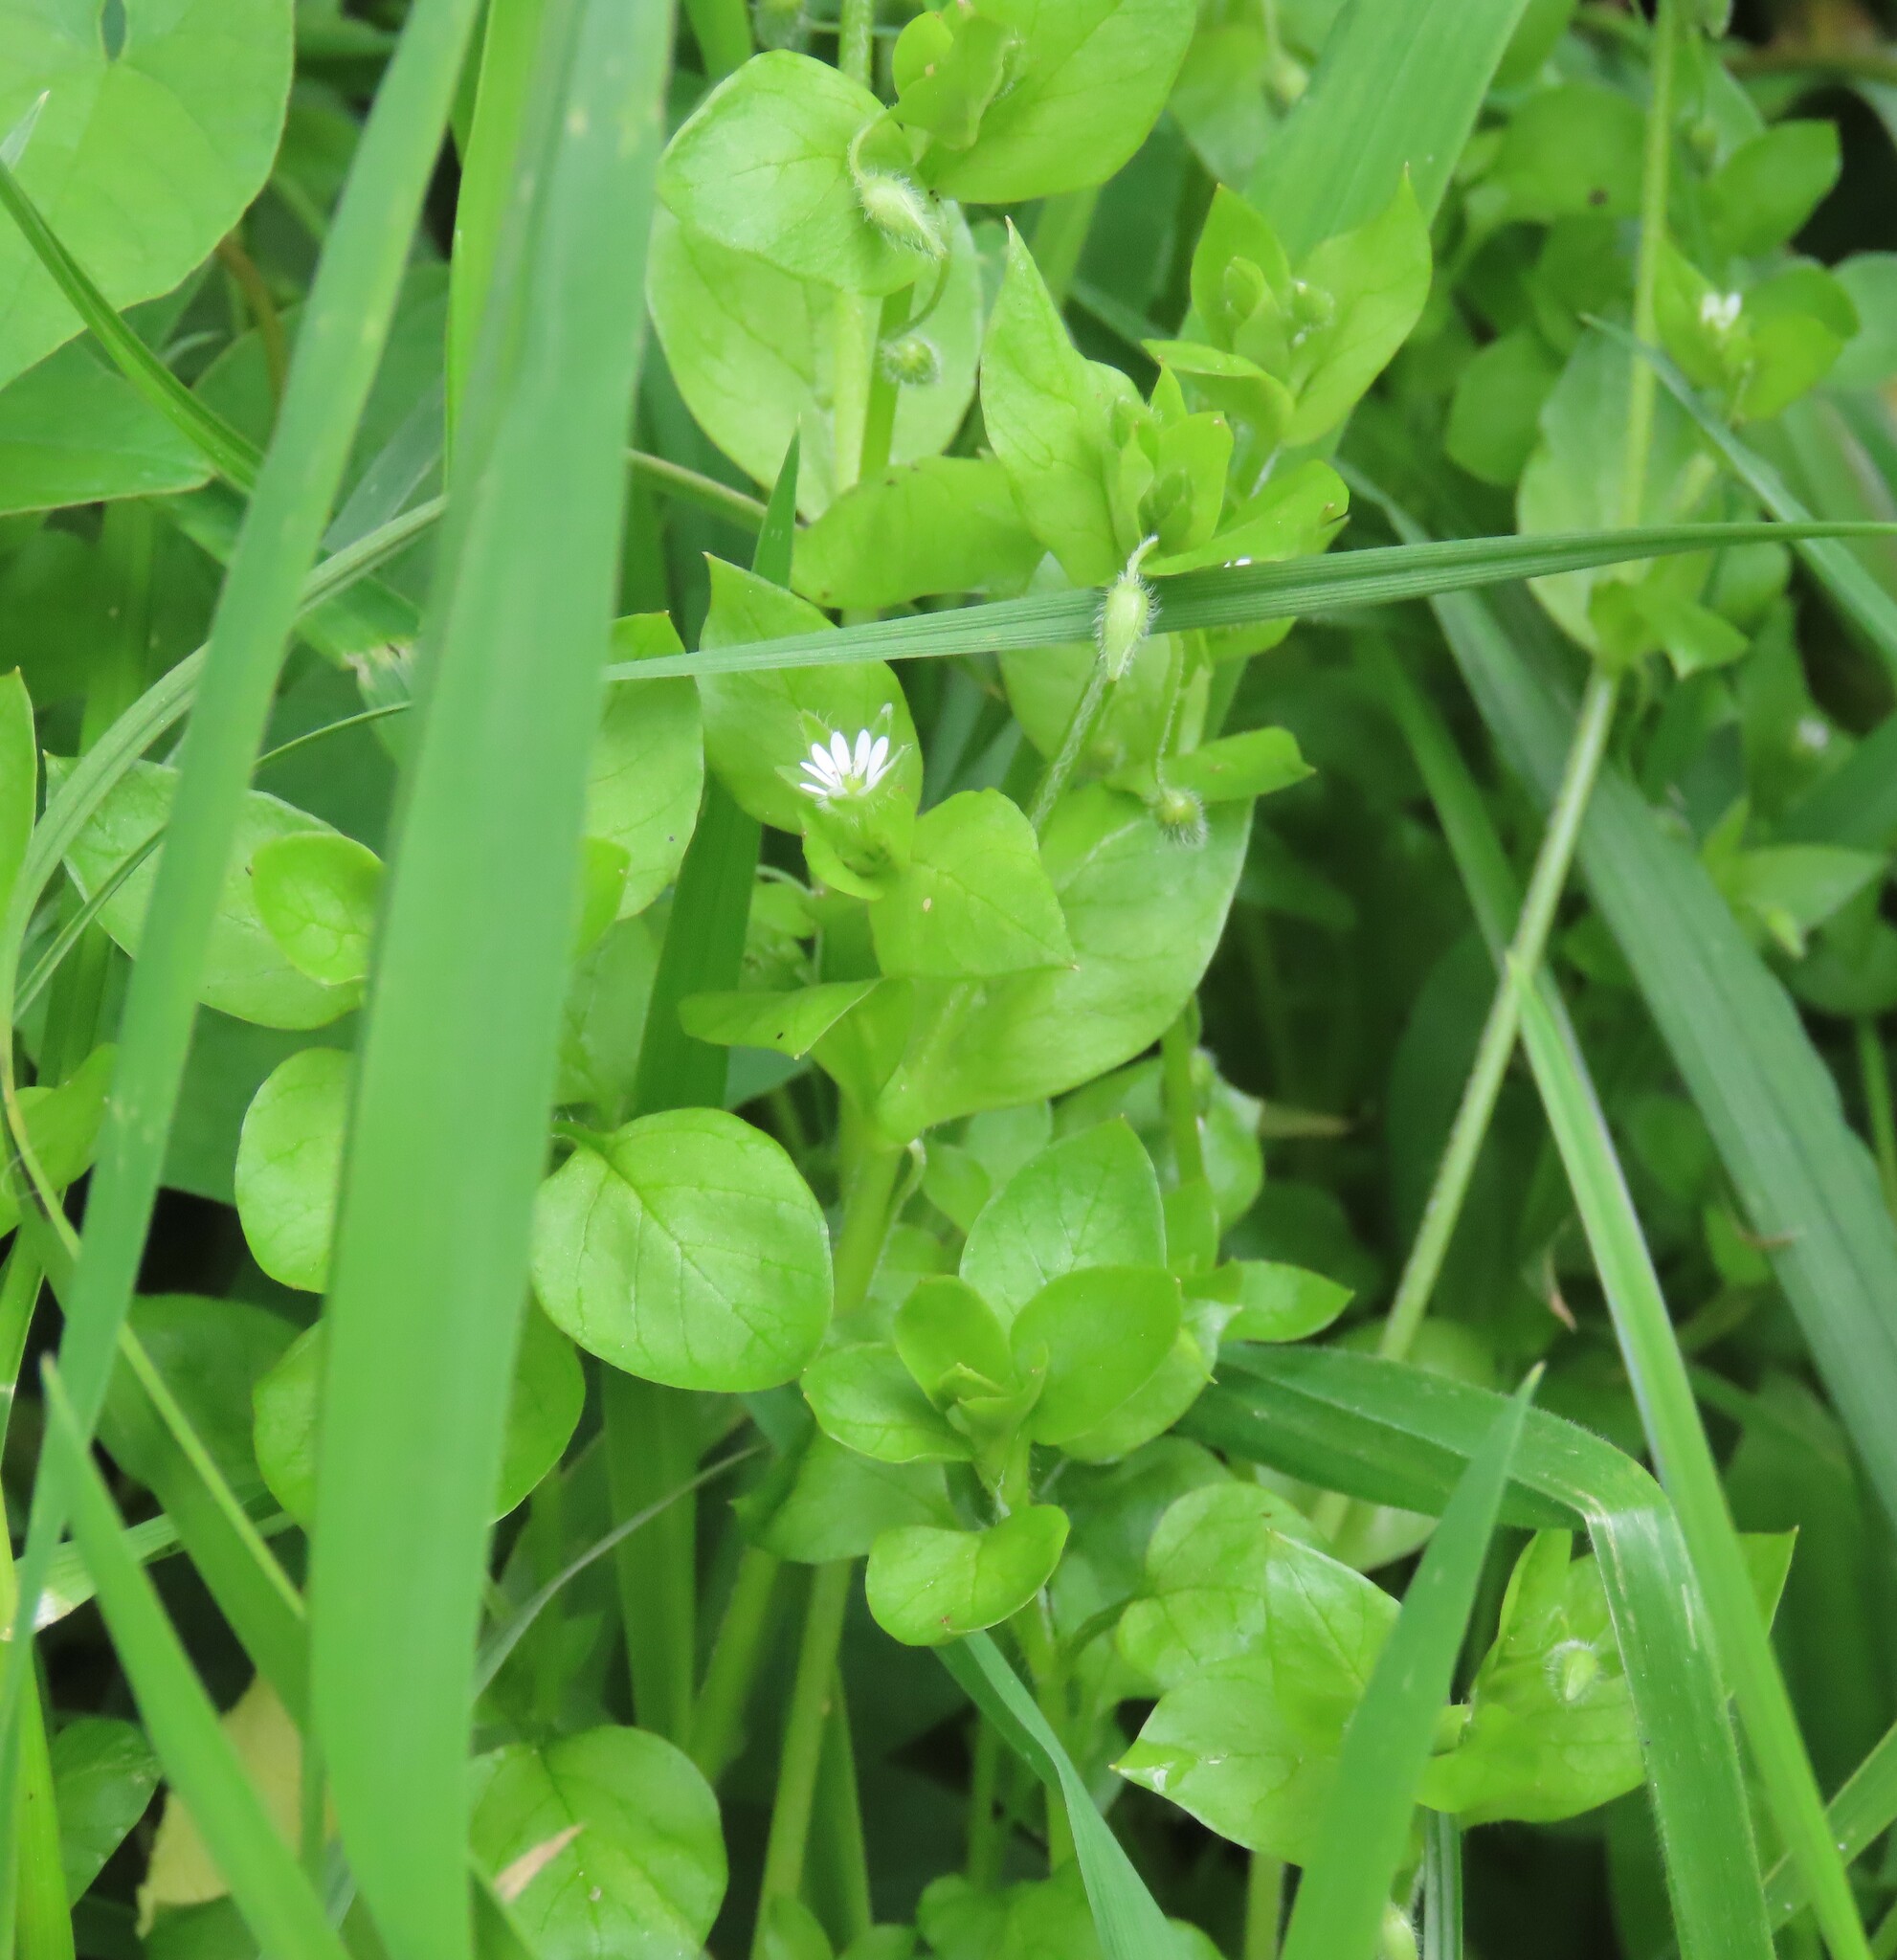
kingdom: Plantae
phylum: Tracheophyta
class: Magnoliopsida
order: Caryophyllales
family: Caryophyllaceae
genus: Stellaria
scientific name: Stellaria media
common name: Common chickweed
